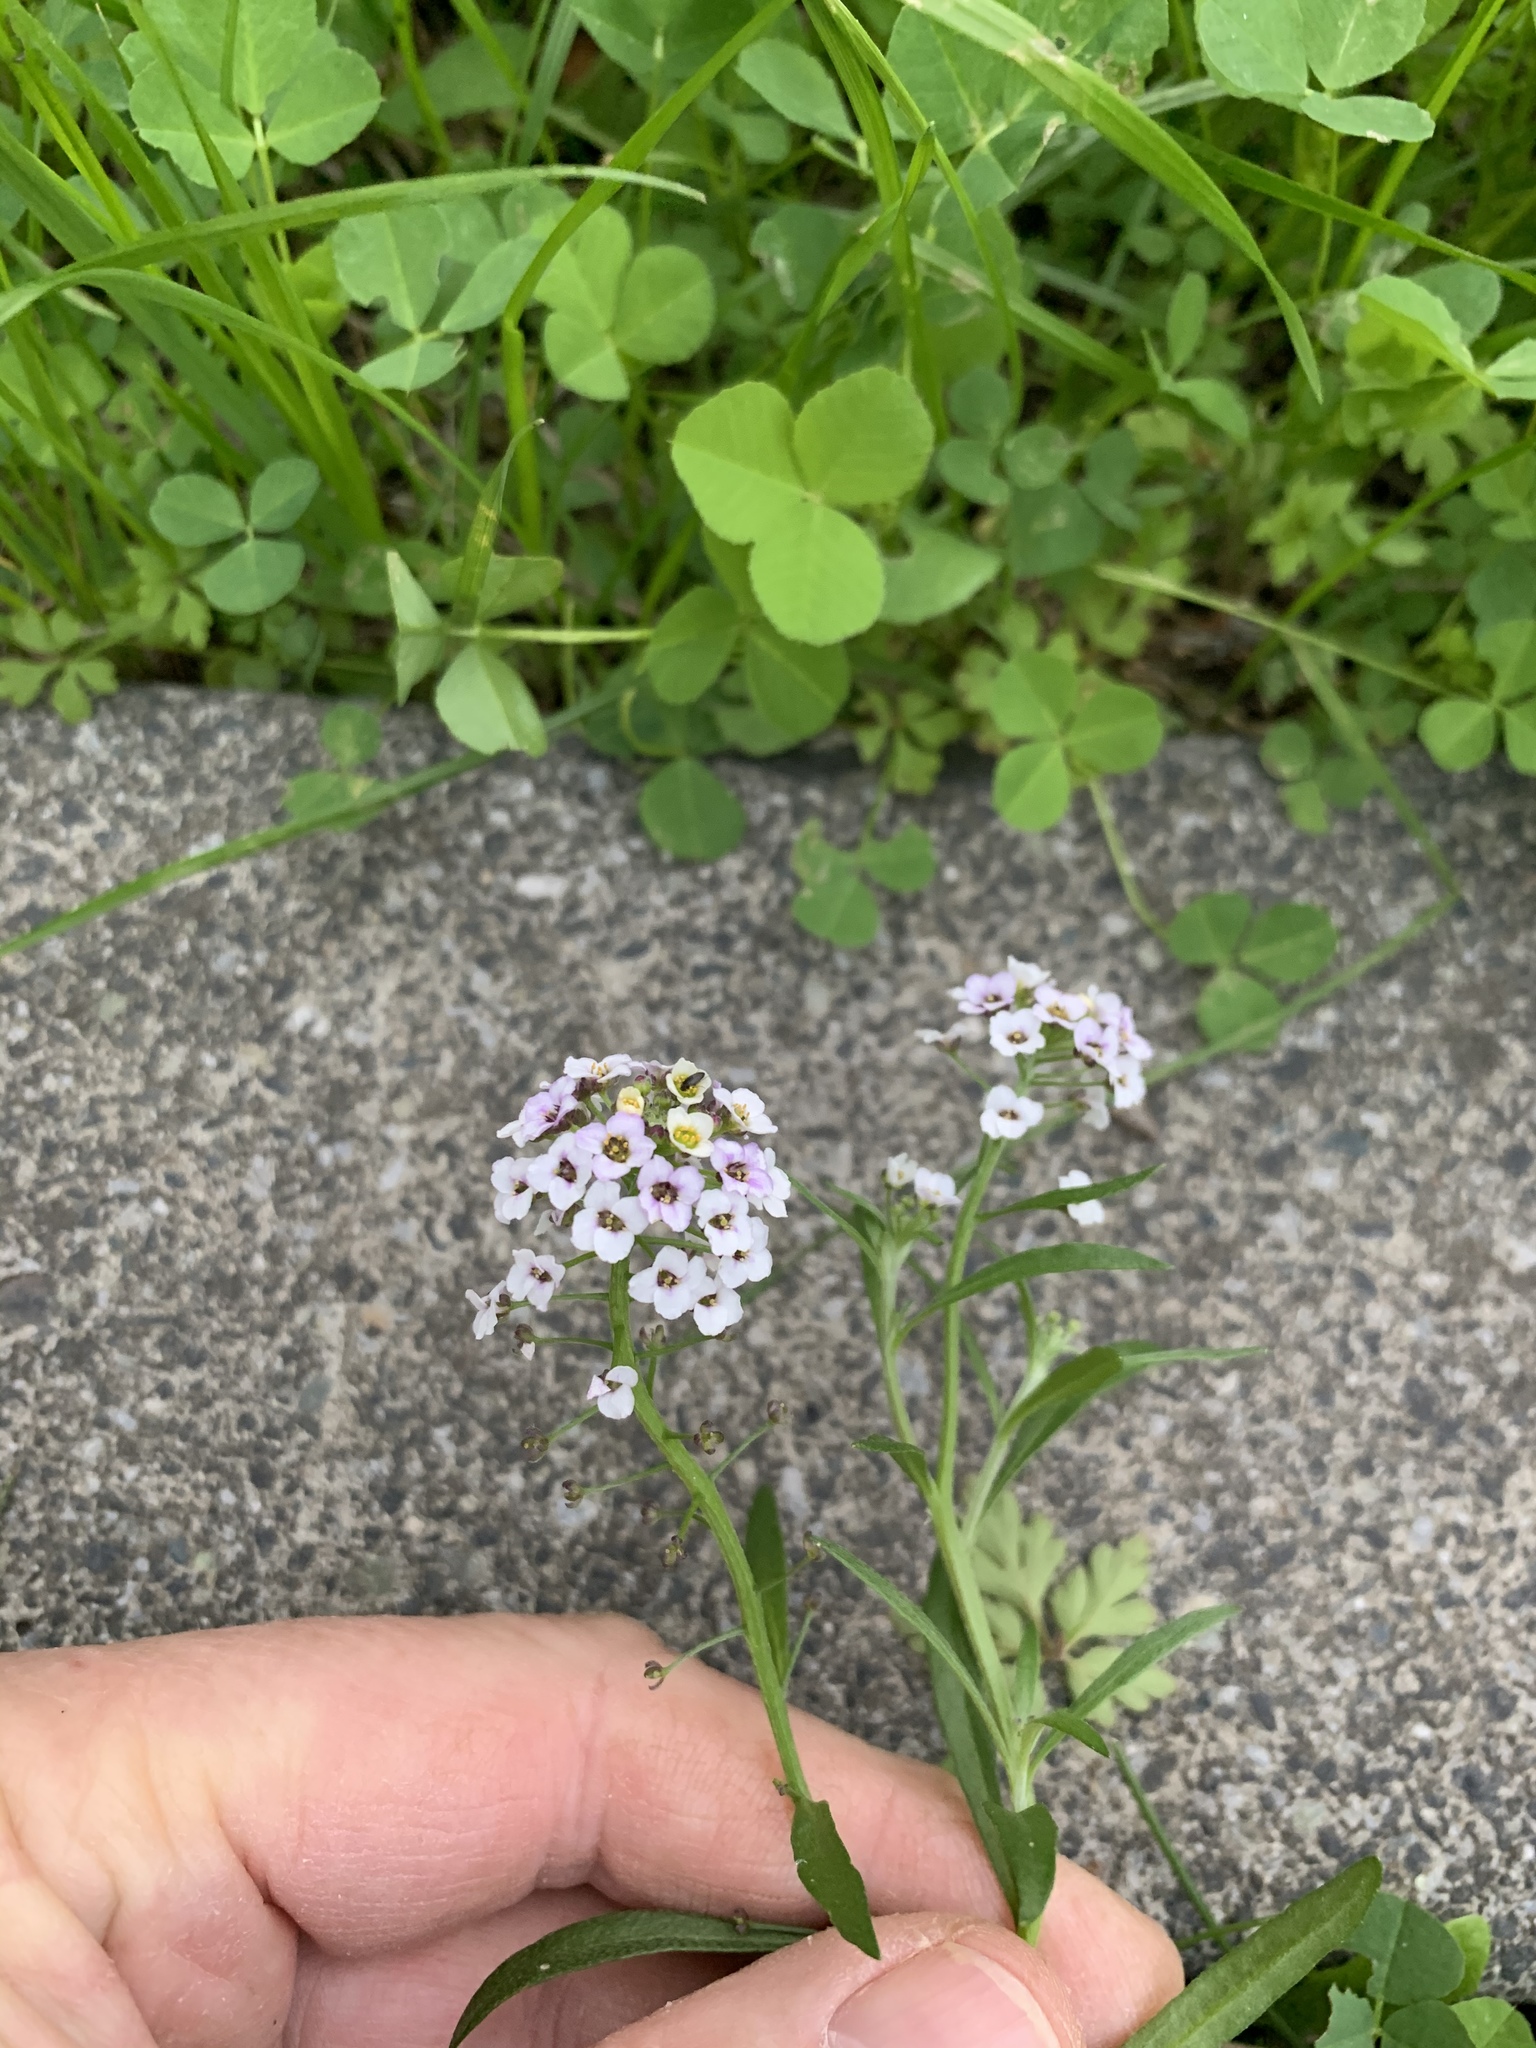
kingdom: Plantae
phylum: Tracheophyta
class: Magnoliopsida
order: Brassicales
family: Brassicaceae
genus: Lobularia
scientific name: Lobularia maritima
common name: Sweet alison
